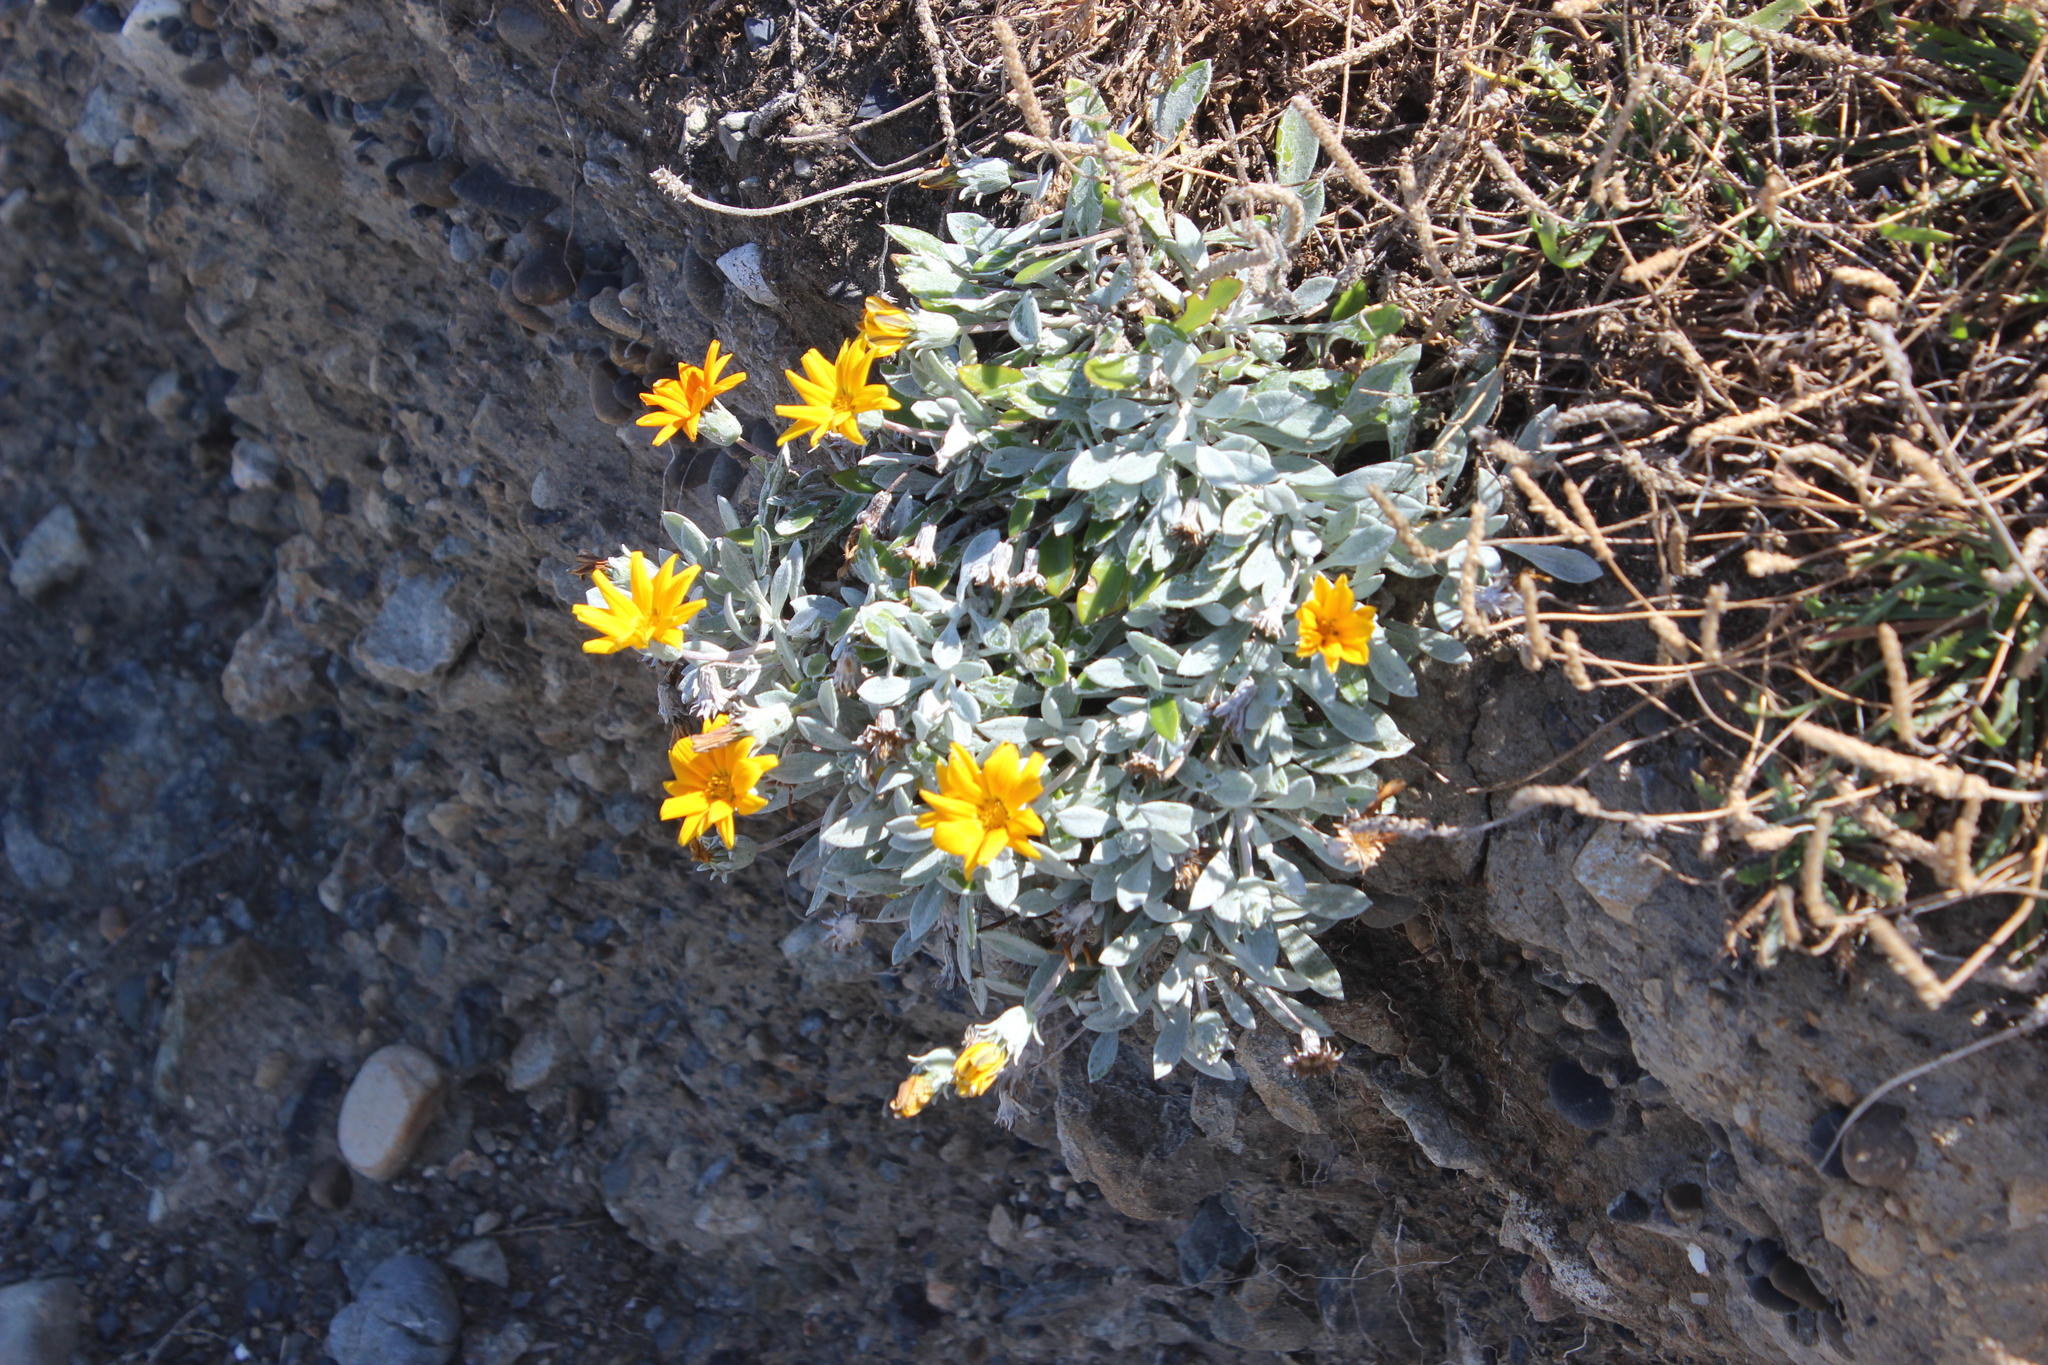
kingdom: Plantae
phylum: Tracheophyta
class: Magnoliopsida
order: Asterales
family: Asteraceae
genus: Gazania
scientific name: Gazania splendens
